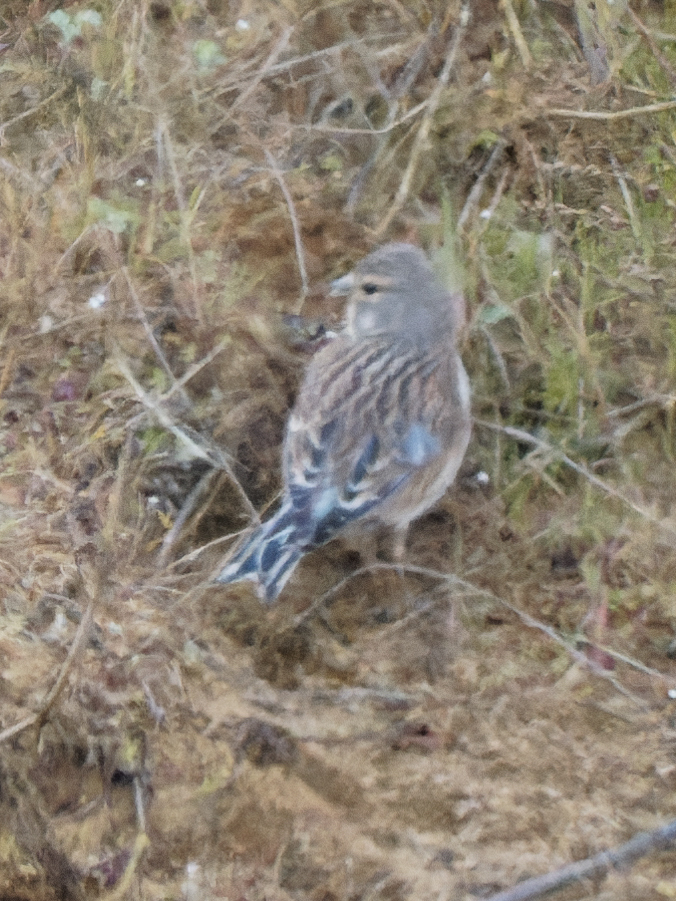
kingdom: Animalia
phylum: Chordata
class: Aves
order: Passeriformes
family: Fringillidae
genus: Linaria
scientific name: Linaria cannabina
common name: Common linnet
